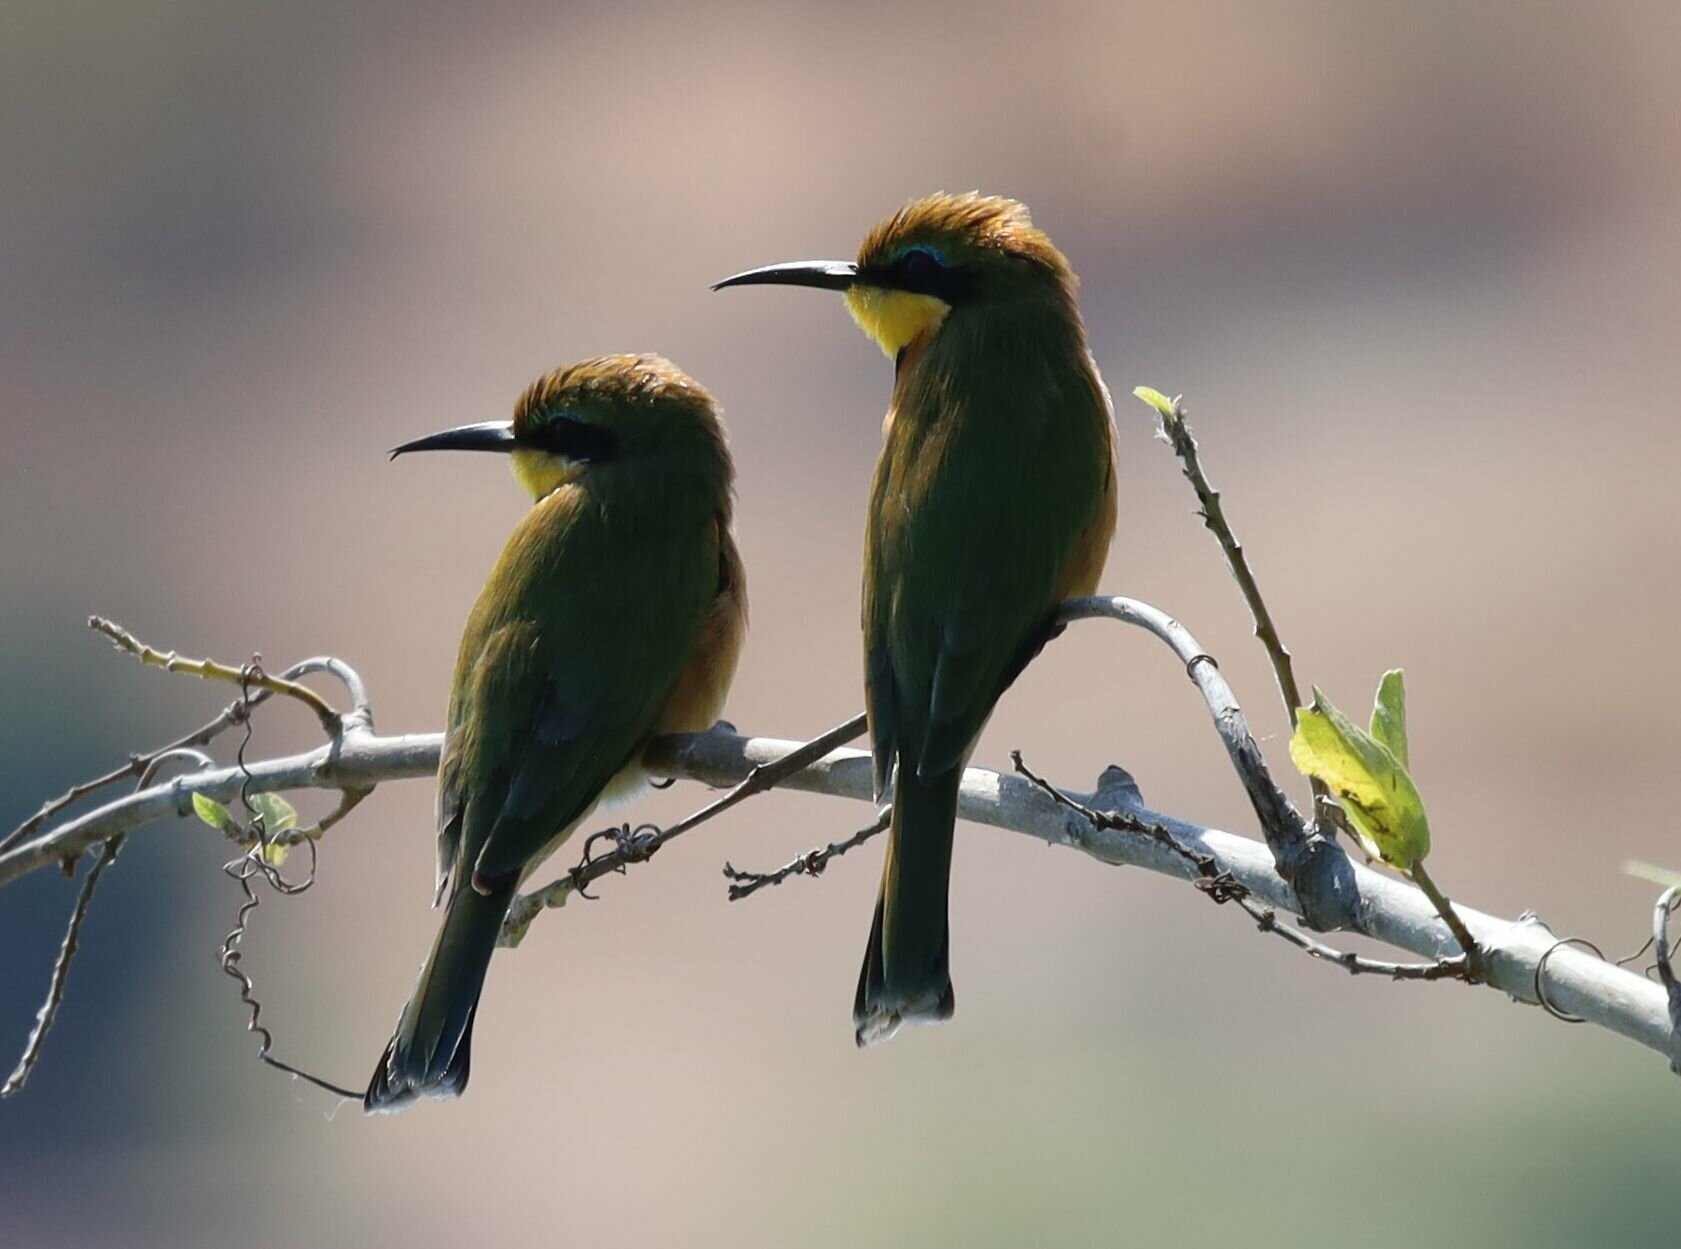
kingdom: Animalia
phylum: Chordata
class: Aves
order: Coraciiformes
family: Meropidae
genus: Merops
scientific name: Merops pusillus
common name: Little bee-eater
